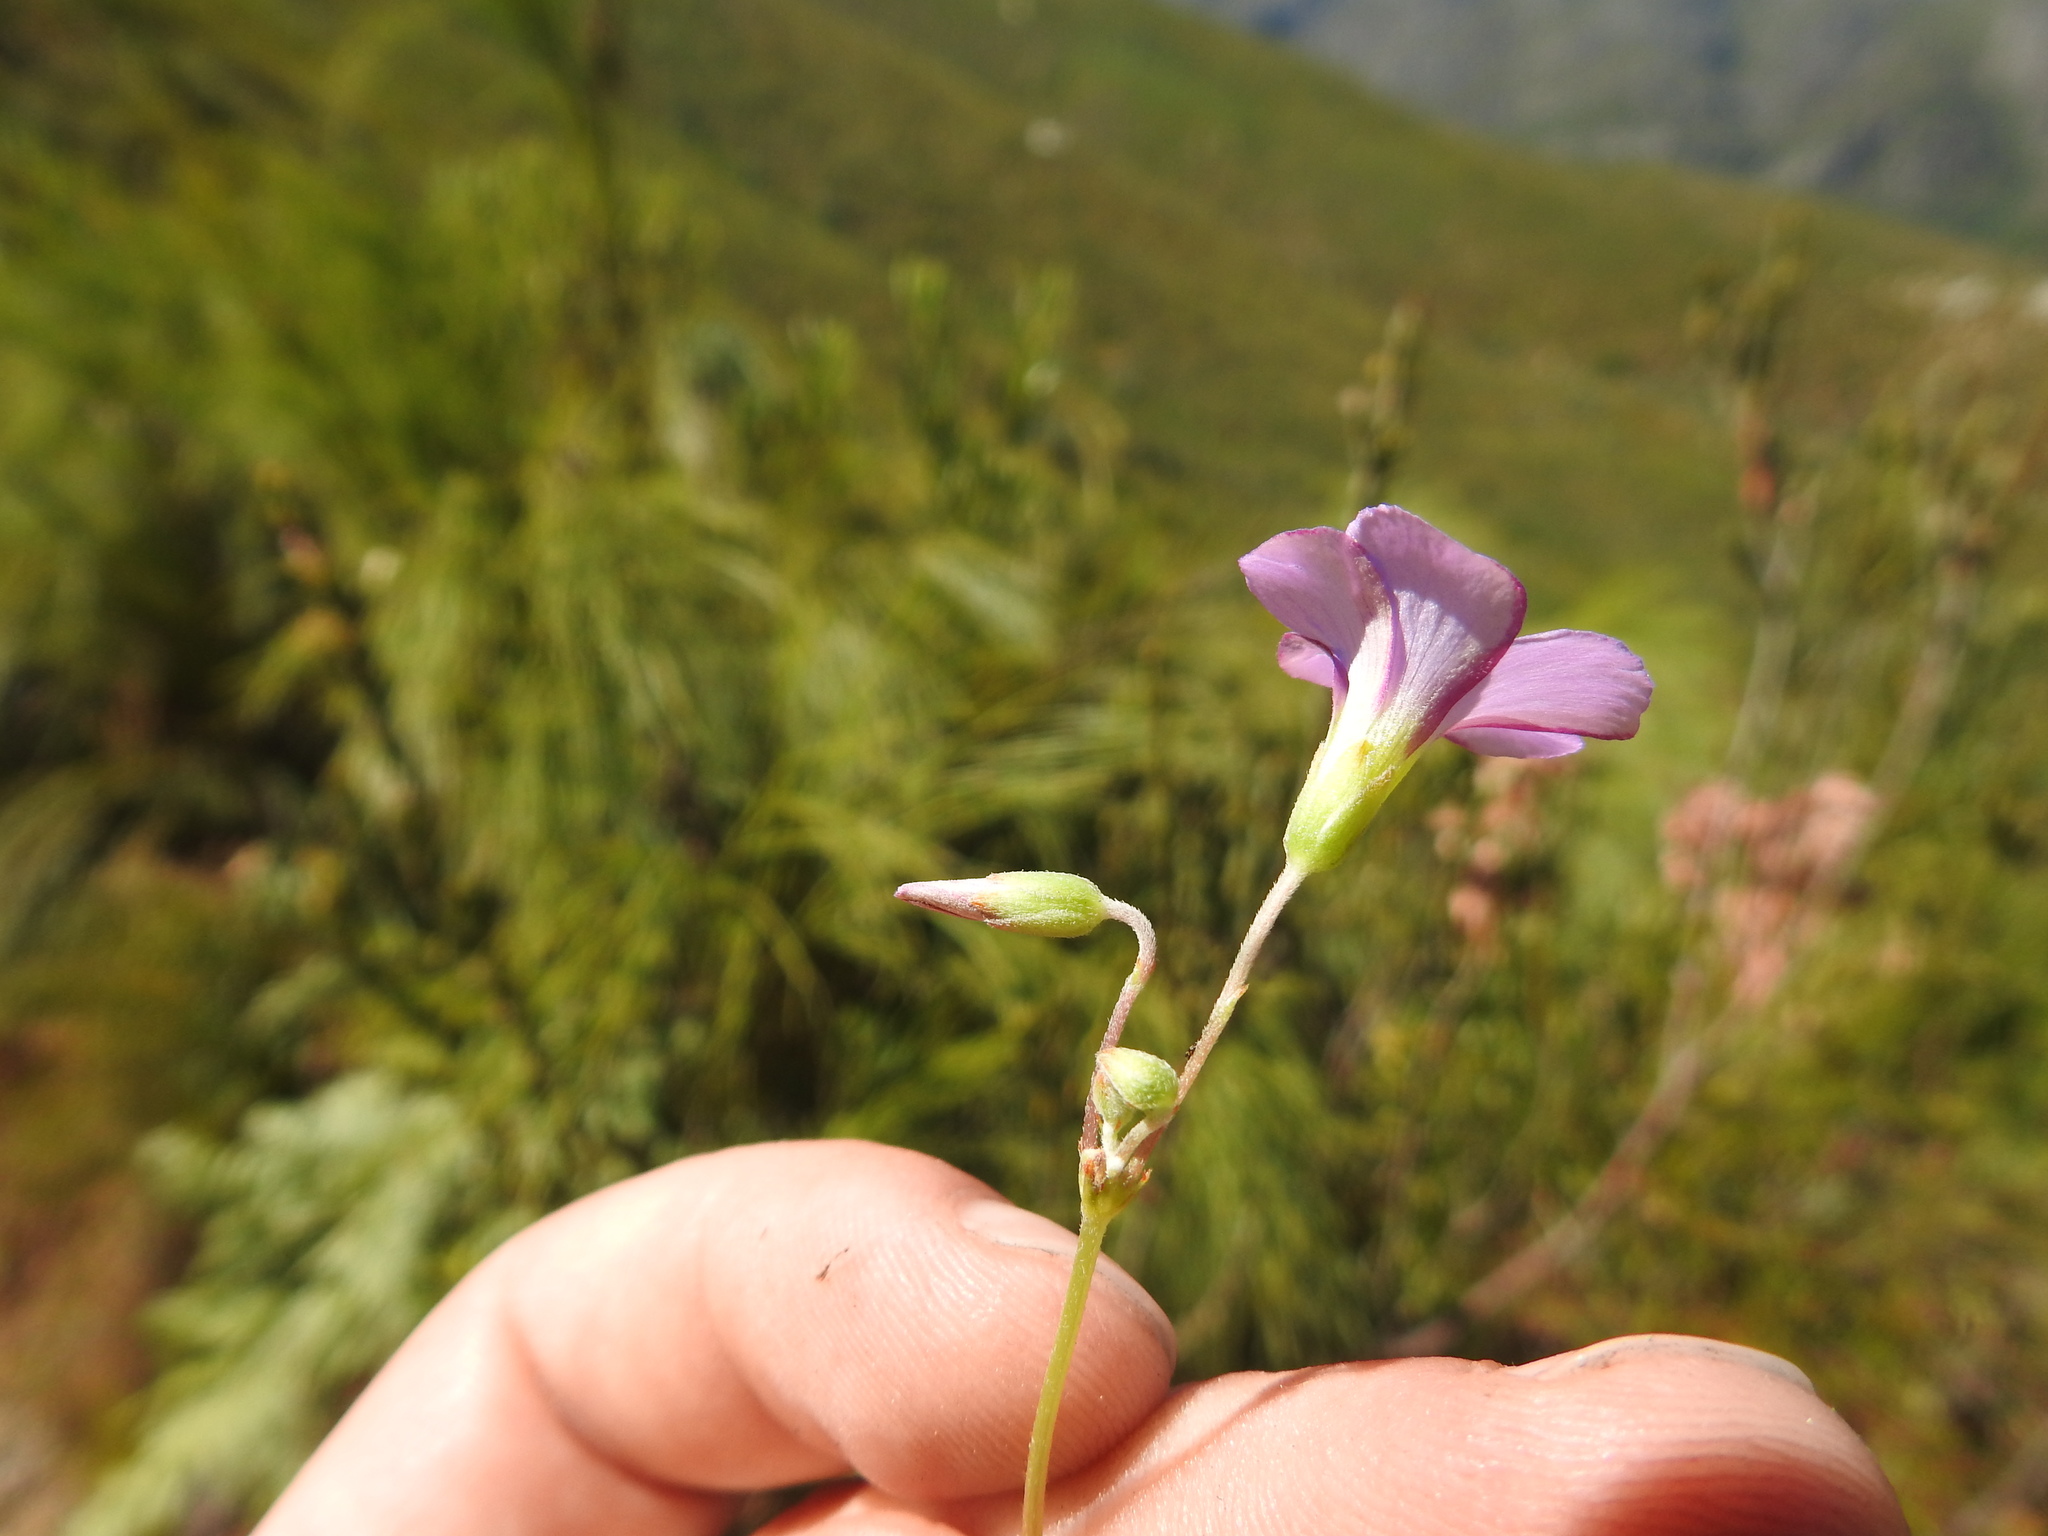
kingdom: Plantae
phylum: Tracheophyta
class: Magnoliopsida
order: Oxalidales
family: Oxalidaceae
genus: Oxalis
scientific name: Oxalis bifida
